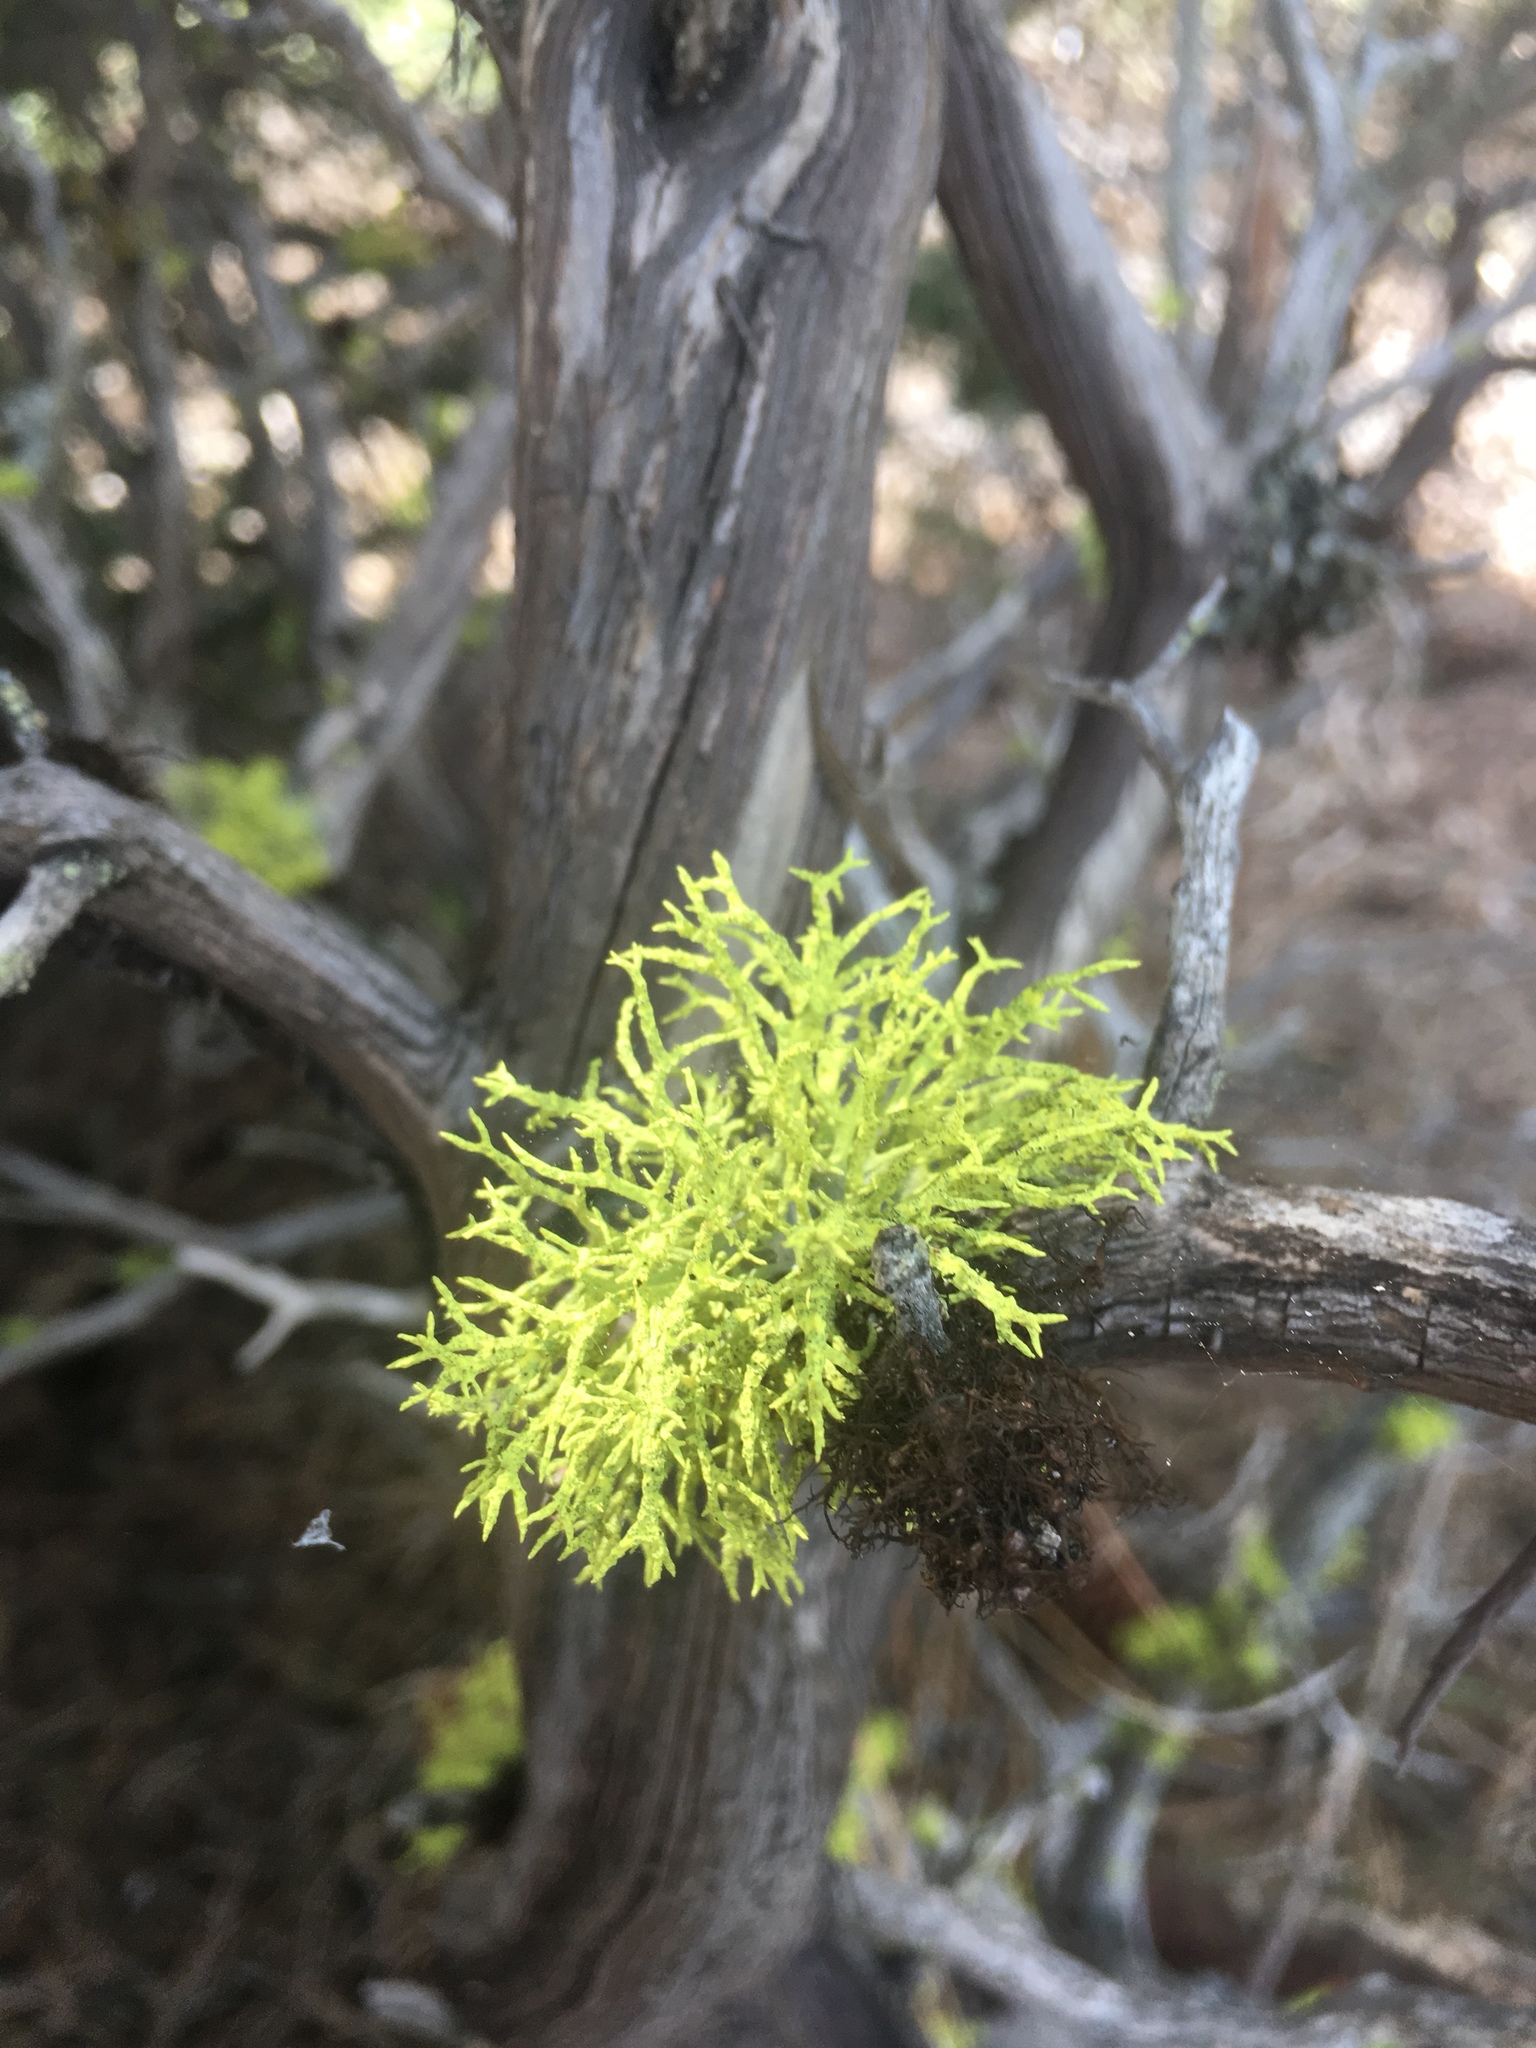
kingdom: Fungi
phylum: Ascomycota
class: Lecanoromycetes
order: Lecanorales
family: Parmeliaceae
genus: Letharia
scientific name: Letharia vulpina
